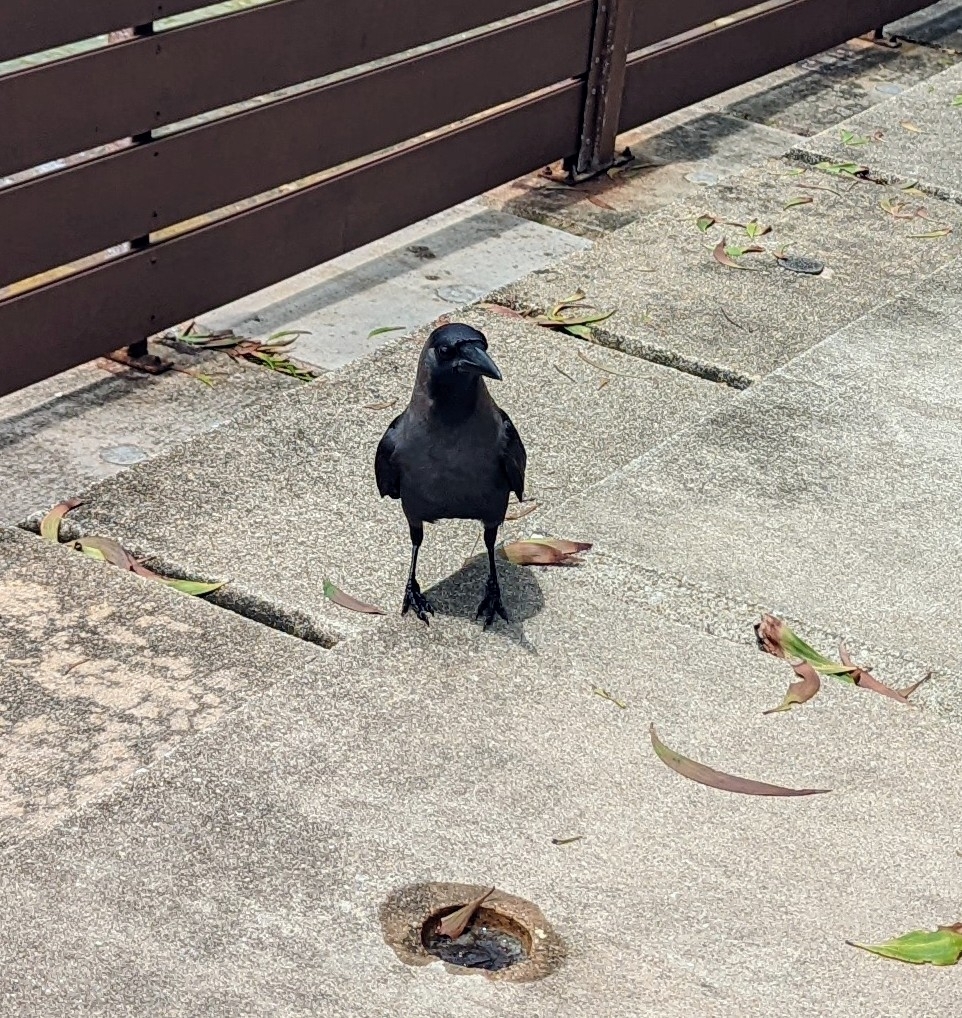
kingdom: Animalia
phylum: Chordata
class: Aves
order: Passeriformes
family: Corvidae
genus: Corvus
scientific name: Corvus splendens
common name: House crow
